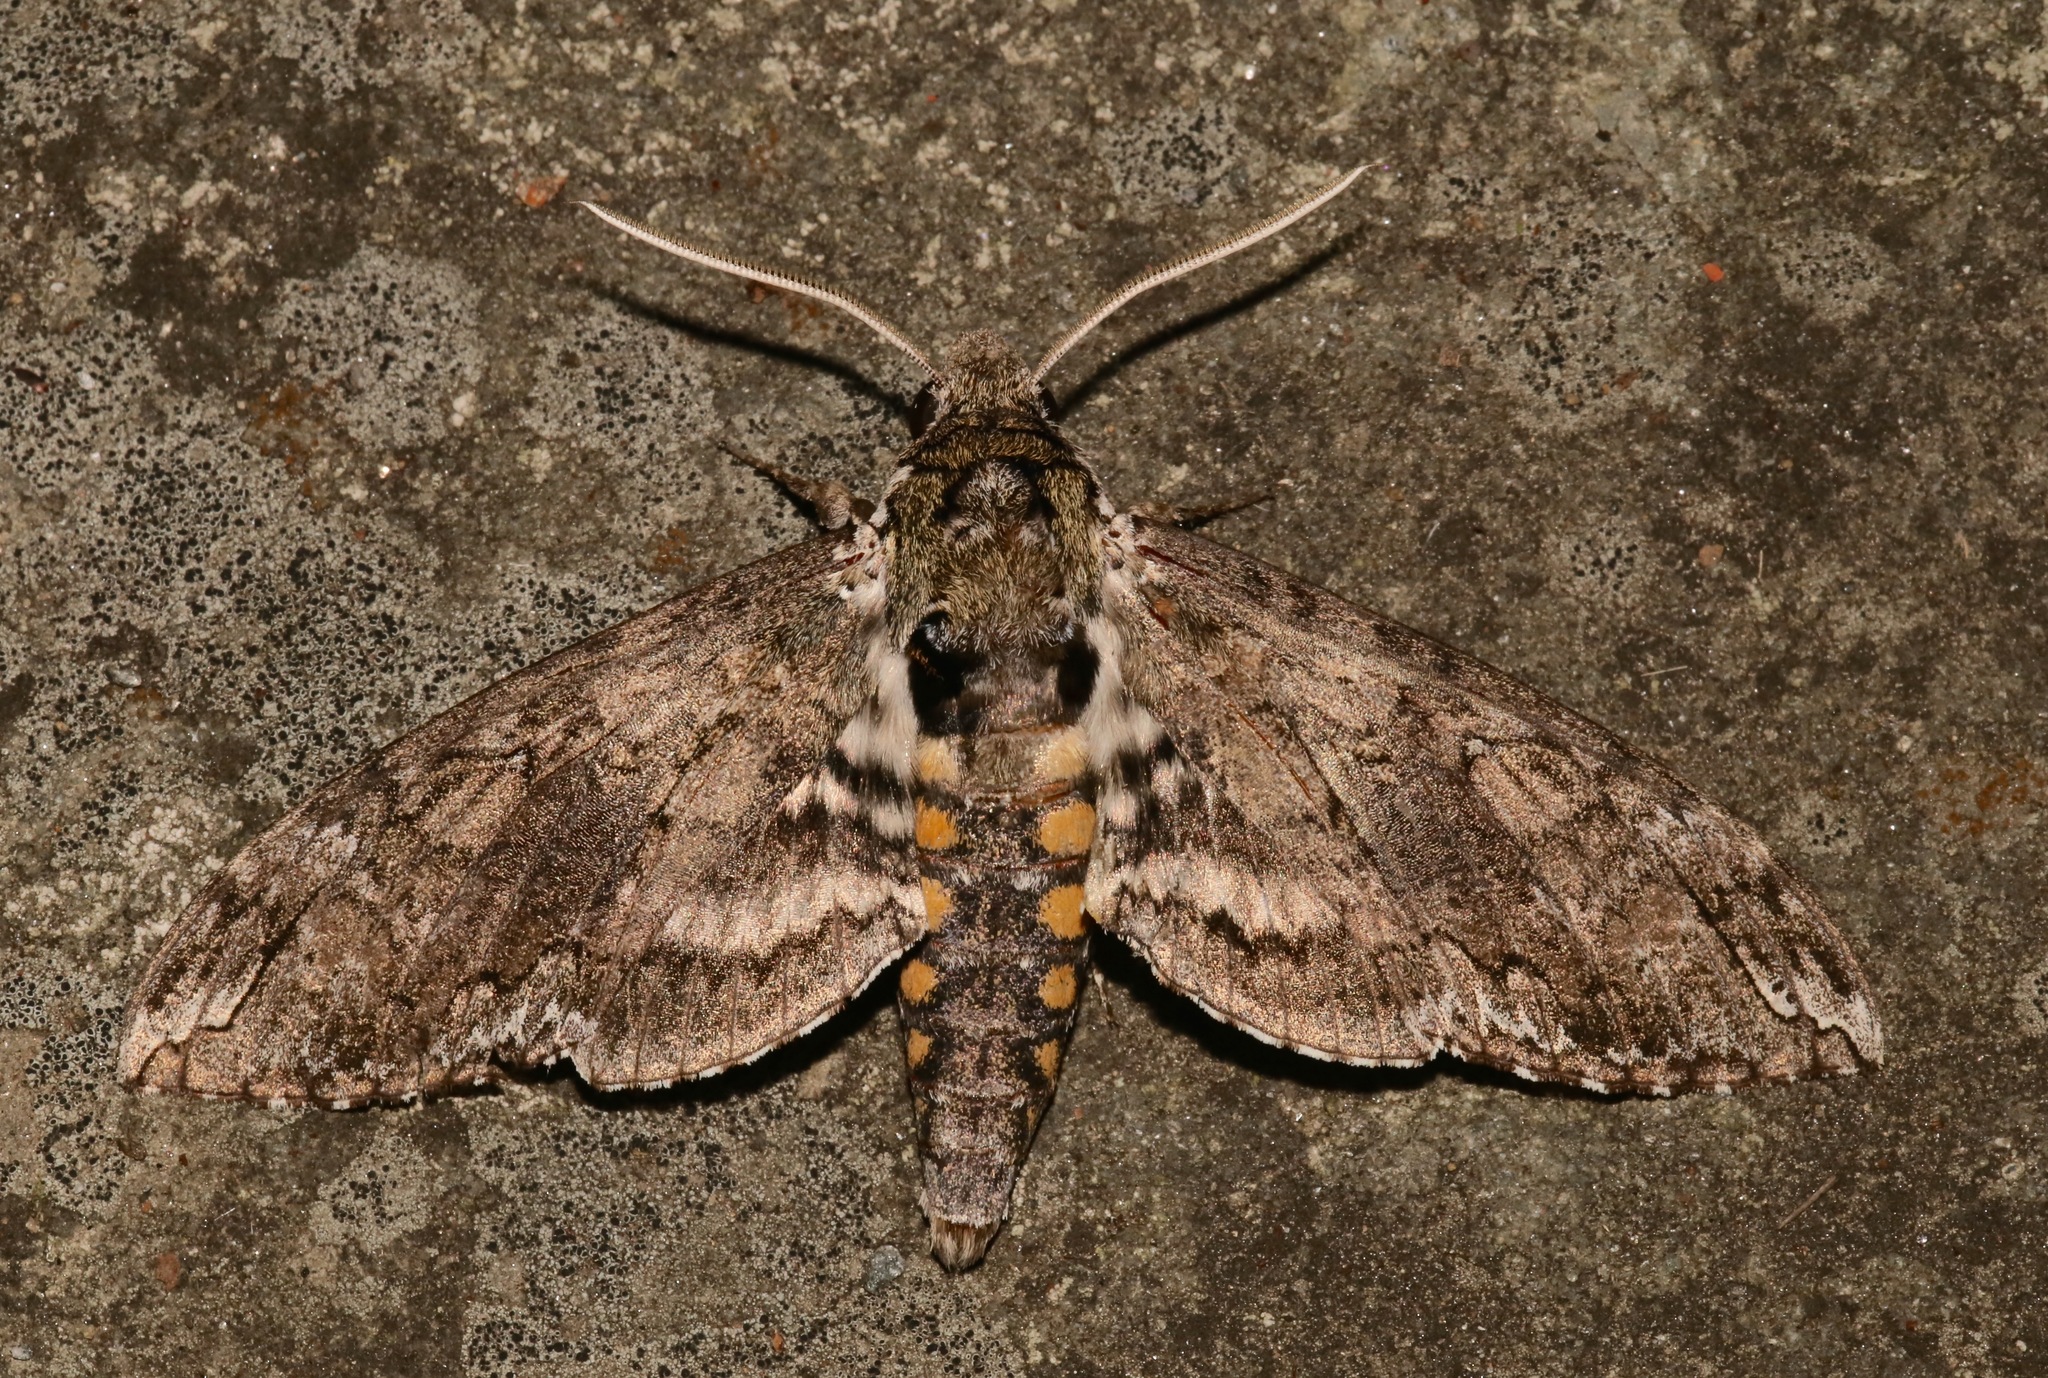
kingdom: Animalia
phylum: Arthropoda
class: Insecta
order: Lepidoptera
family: Sphingidae
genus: Manduca
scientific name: Manduca sexta
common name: Carolina sphinx
